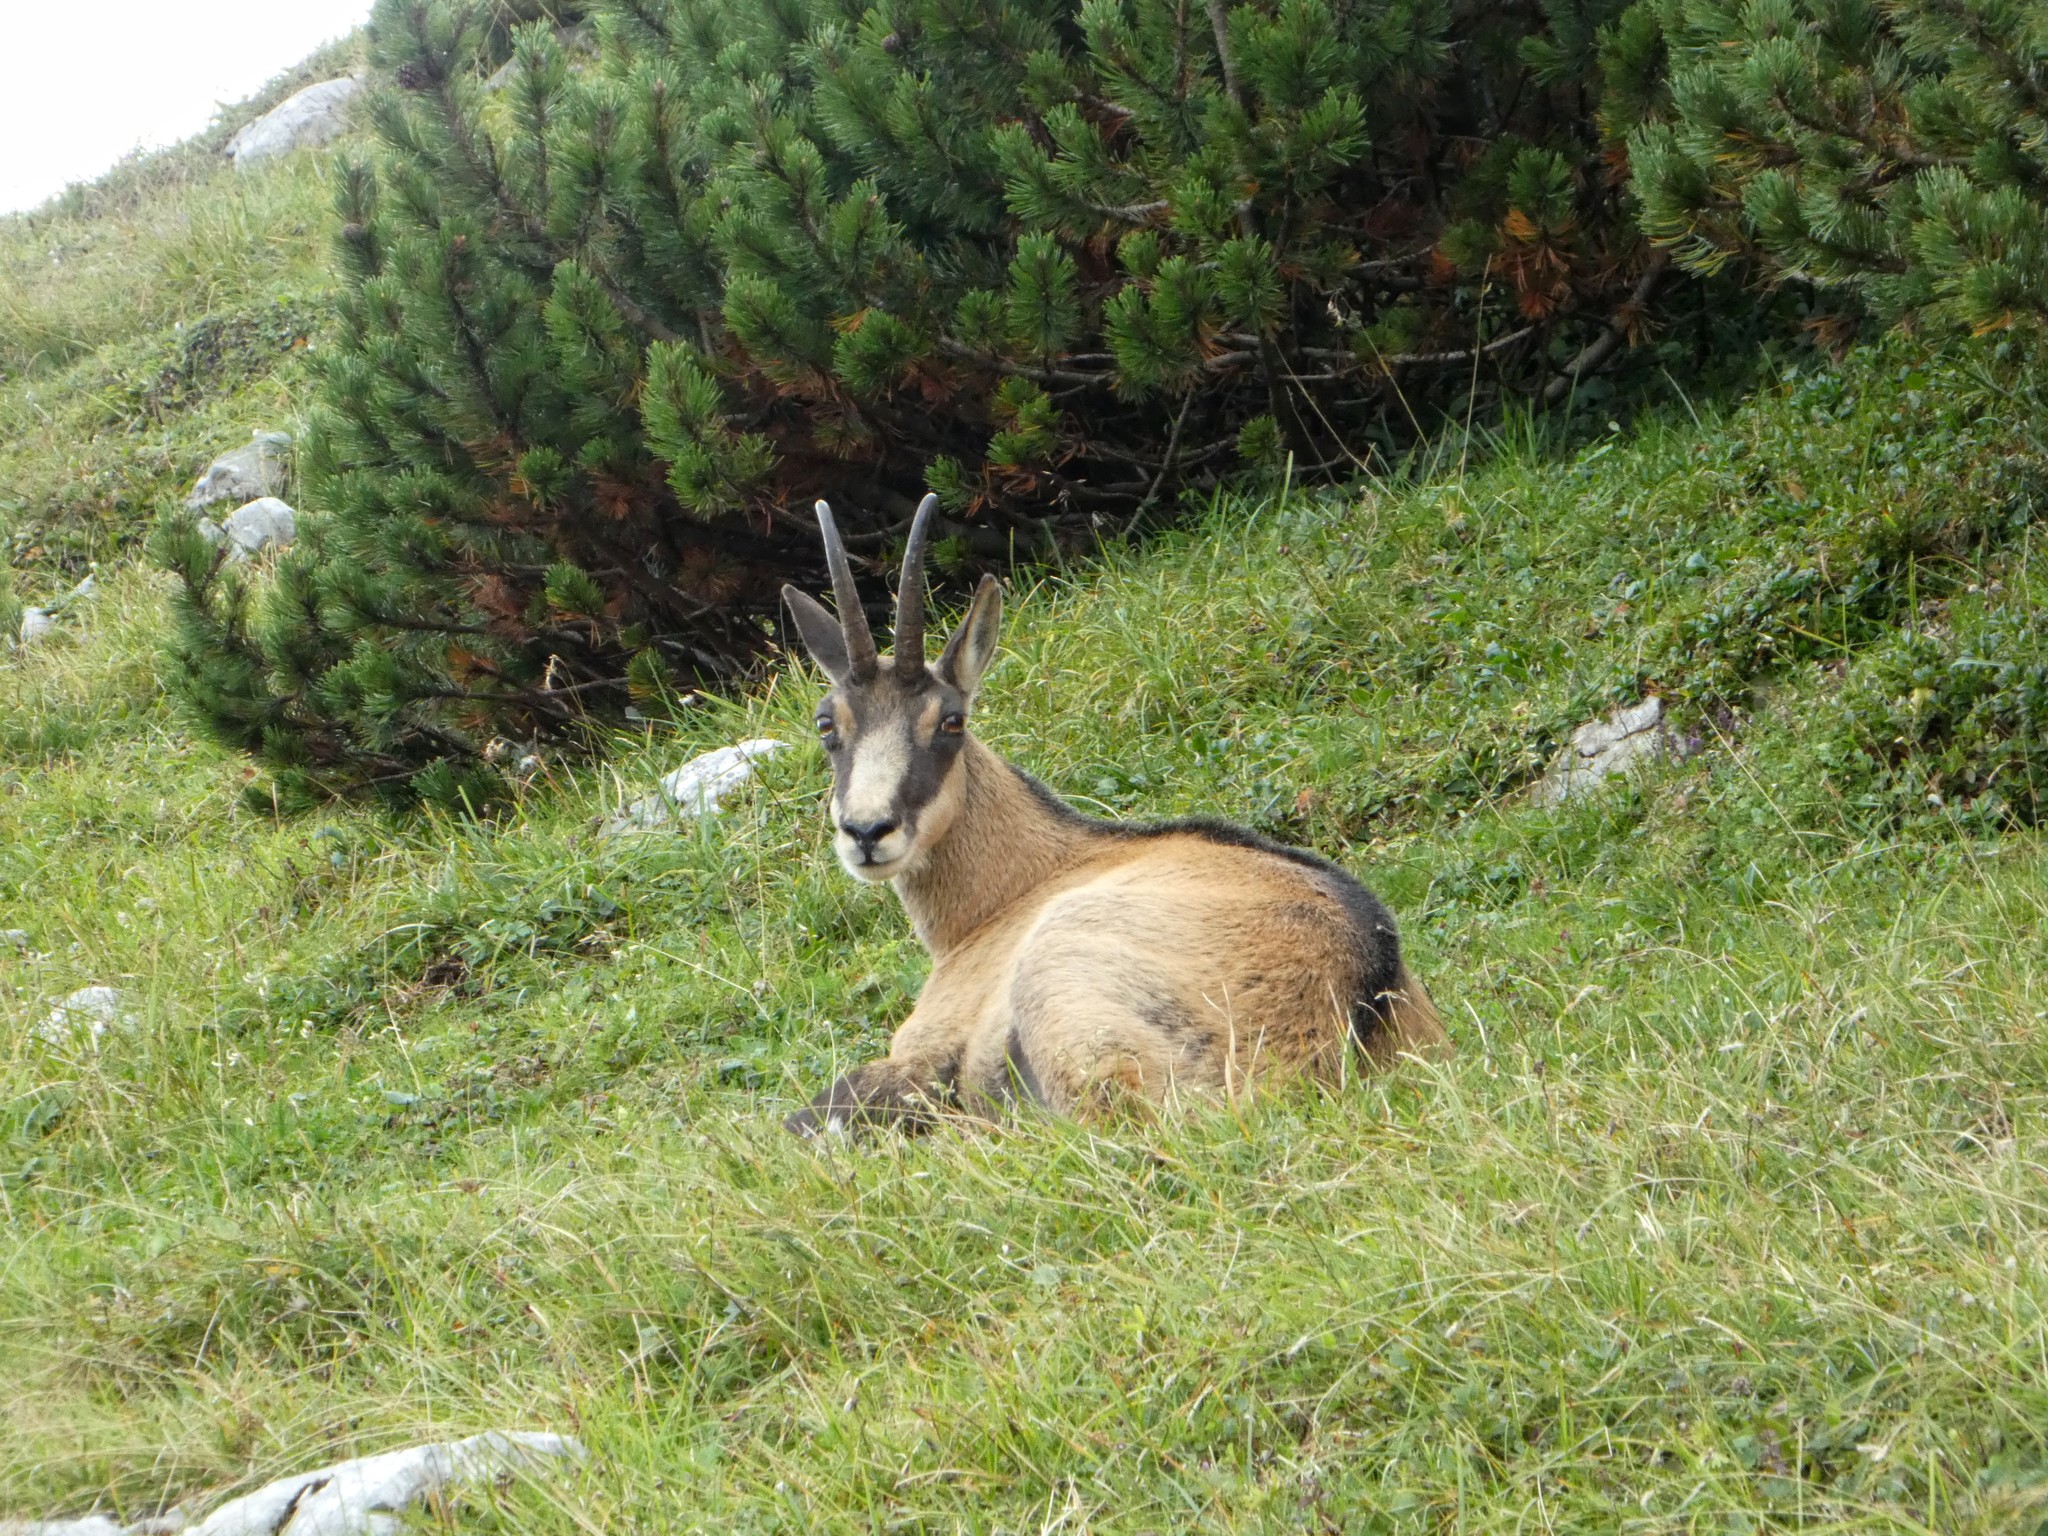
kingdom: Animalia
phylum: Chordata
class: Mammalia
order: Artiodactyla
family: Bovidae
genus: Rupicapra
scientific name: Rupicapra rupicapra
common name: Chamois
